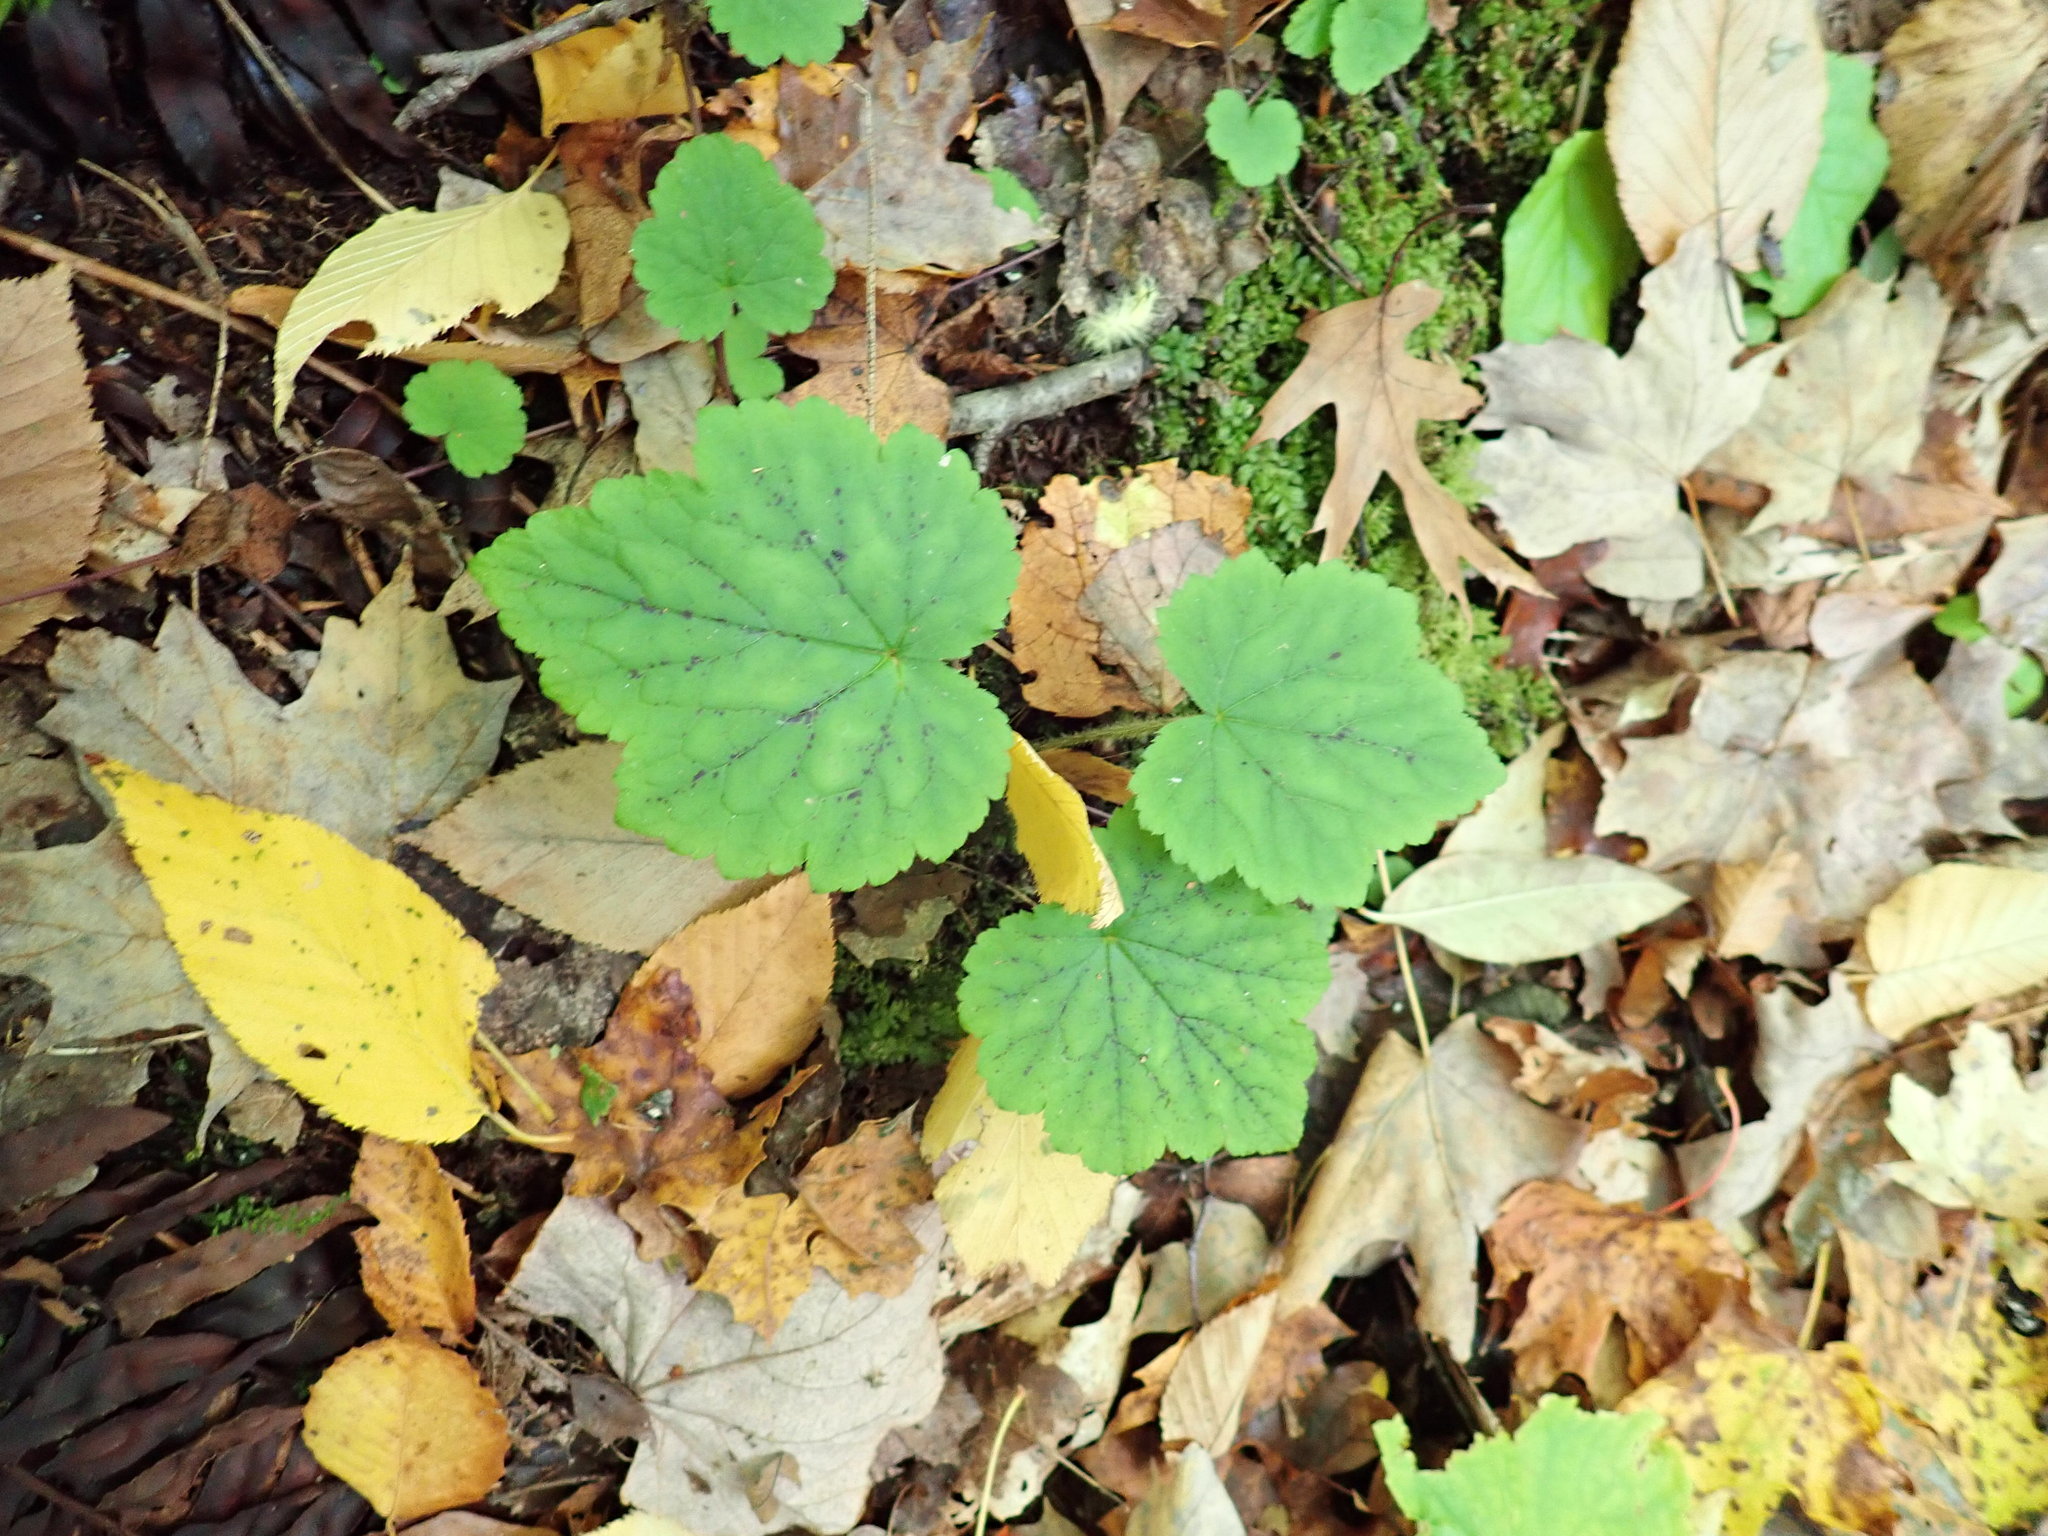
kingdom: Plantae
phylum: Tracheophyta
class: Magnoliopsida
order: Saxifragales
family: Saxifragaceae
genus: Tiarella
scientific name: Tiarella stolonifera
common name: Stoloniferous foamflower
